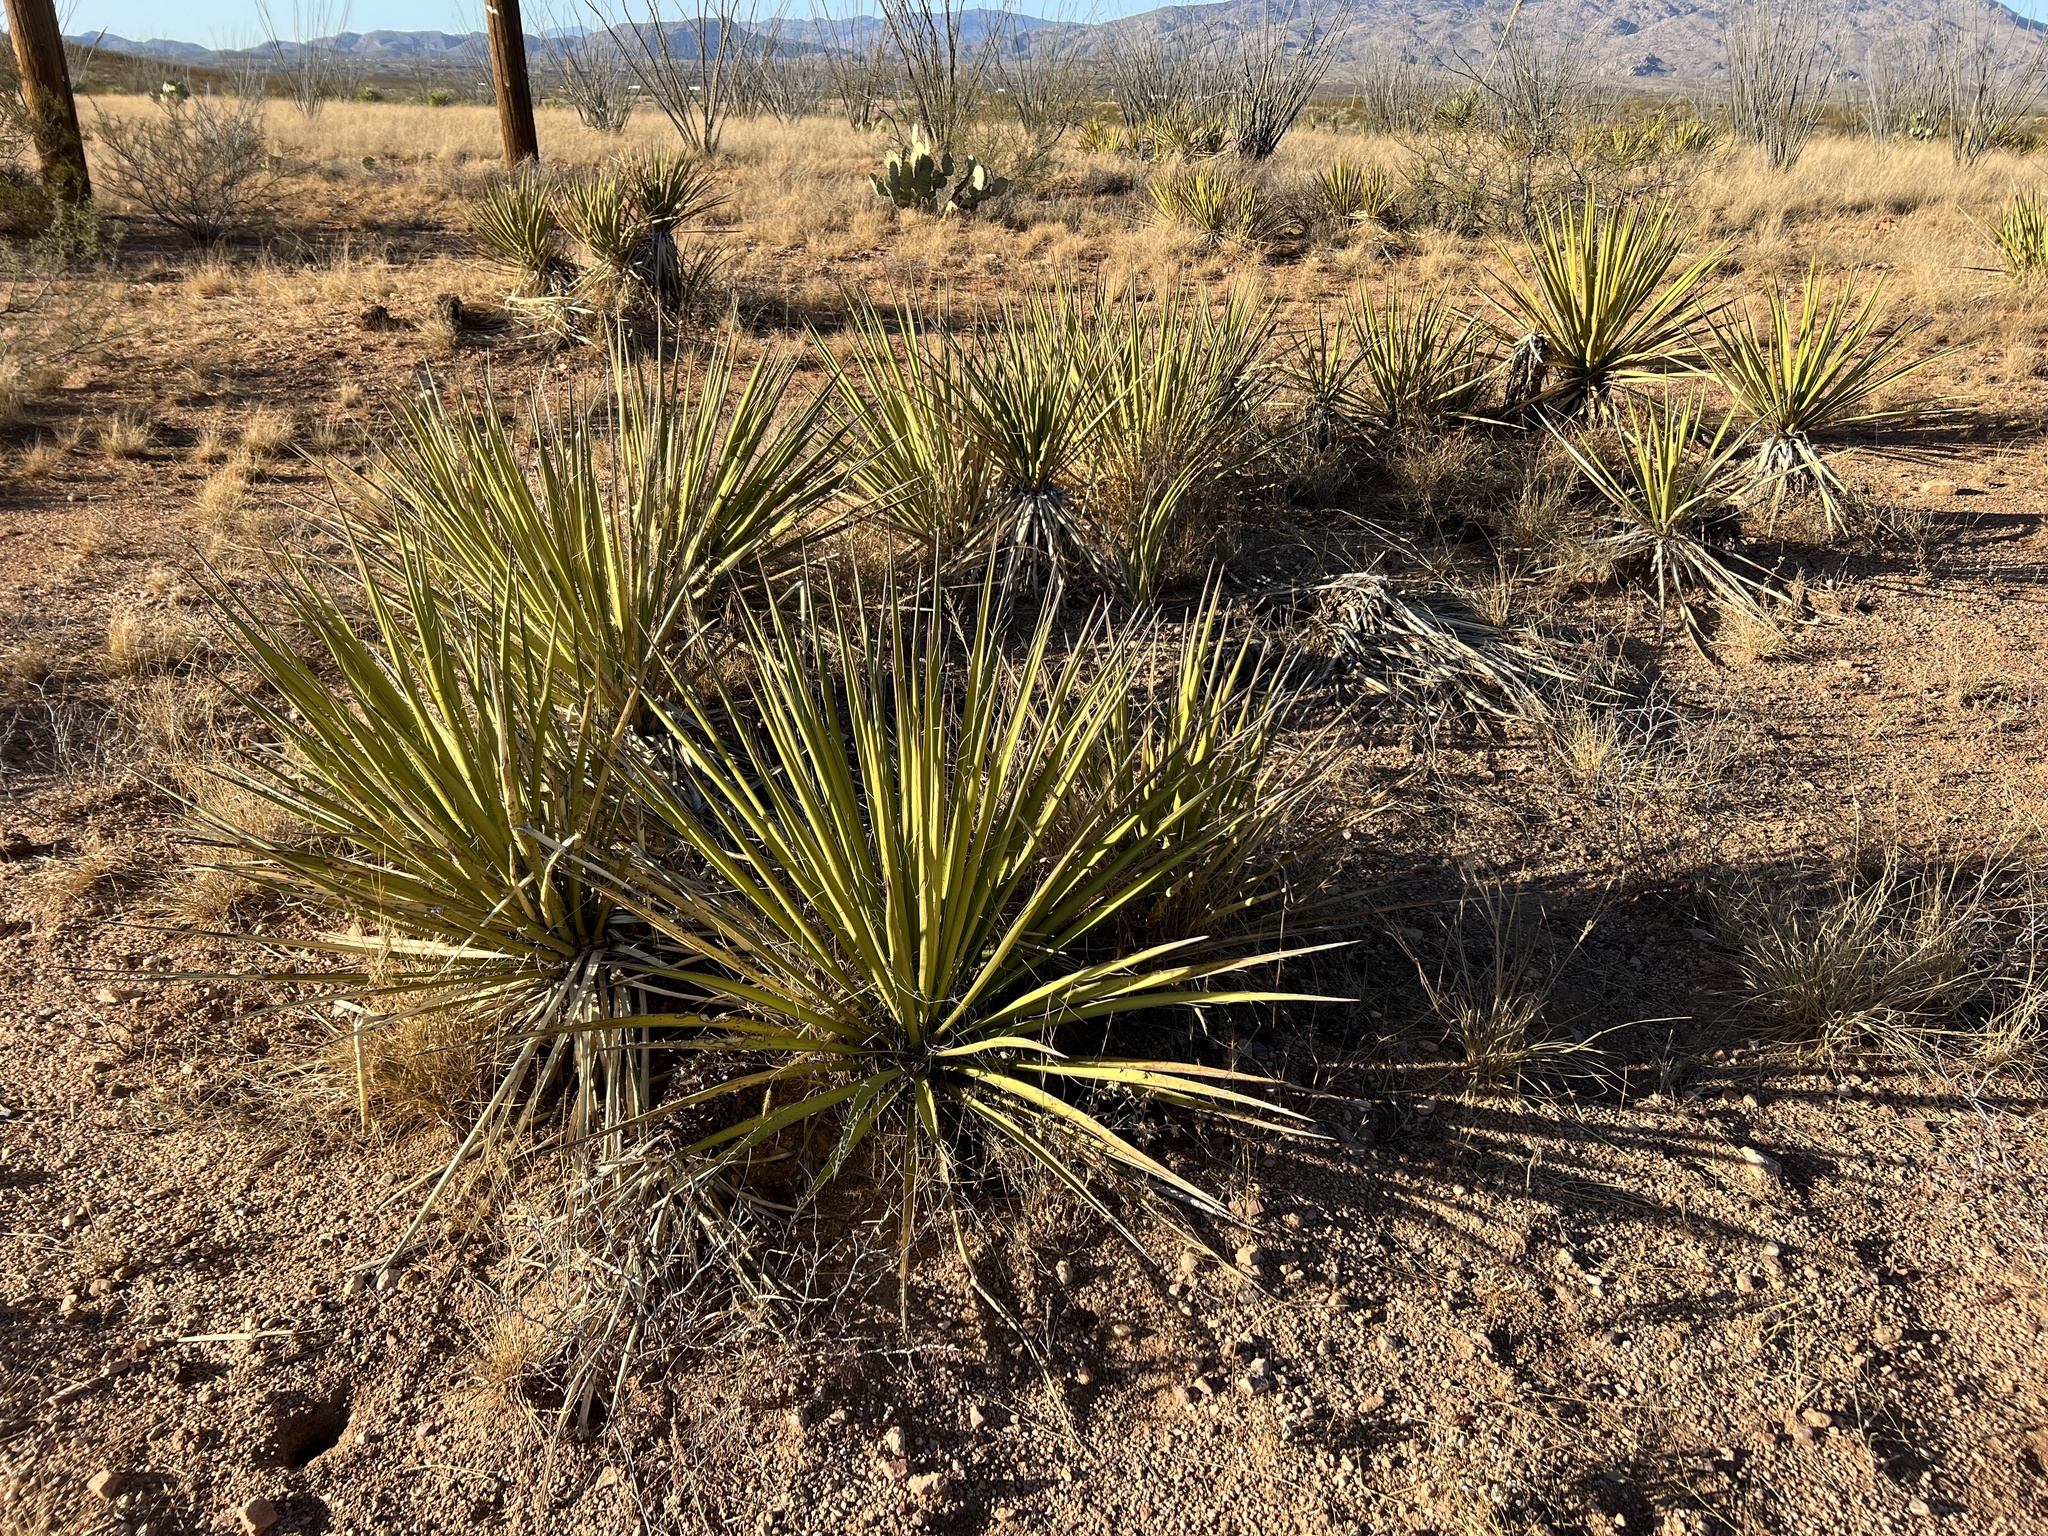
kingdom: Plantae
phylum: Tracheophyta
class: Liliopsida
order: Asparagales
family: Asparagaceae
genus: Yucca
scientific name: Yucca baccata
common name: Banana yucca
